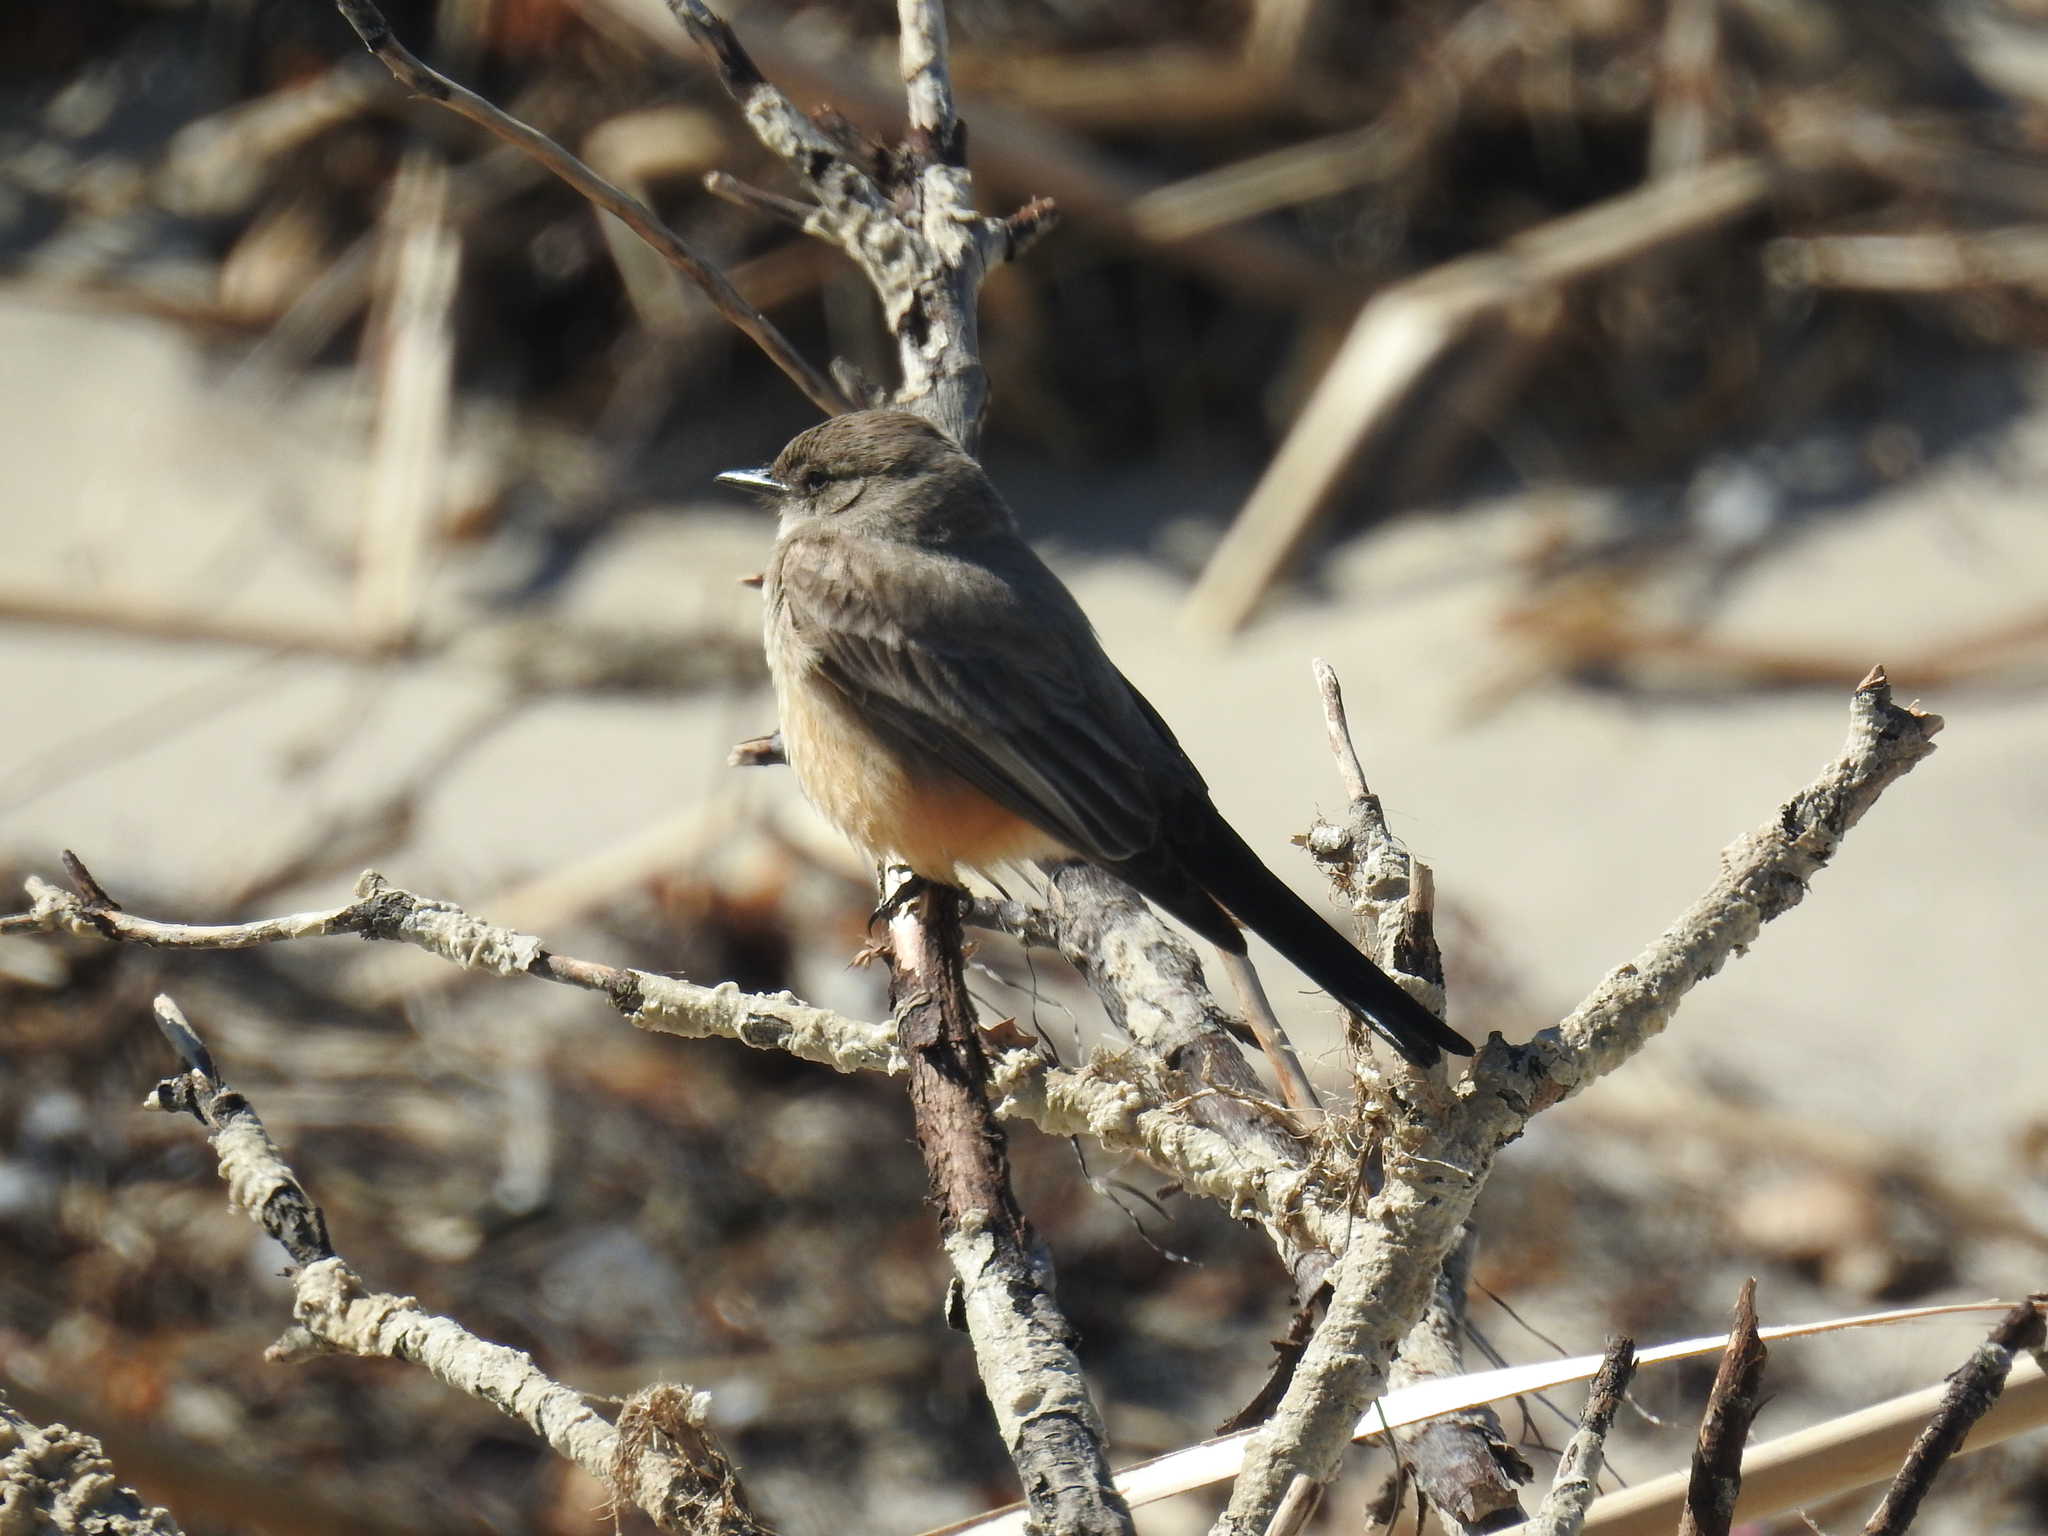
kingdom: Animalia
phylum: Chordata
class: Aves
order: Passeriformes
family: Tyrannidae
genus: Sayornis
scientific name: Sayornis saya
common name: Say's phoebe
